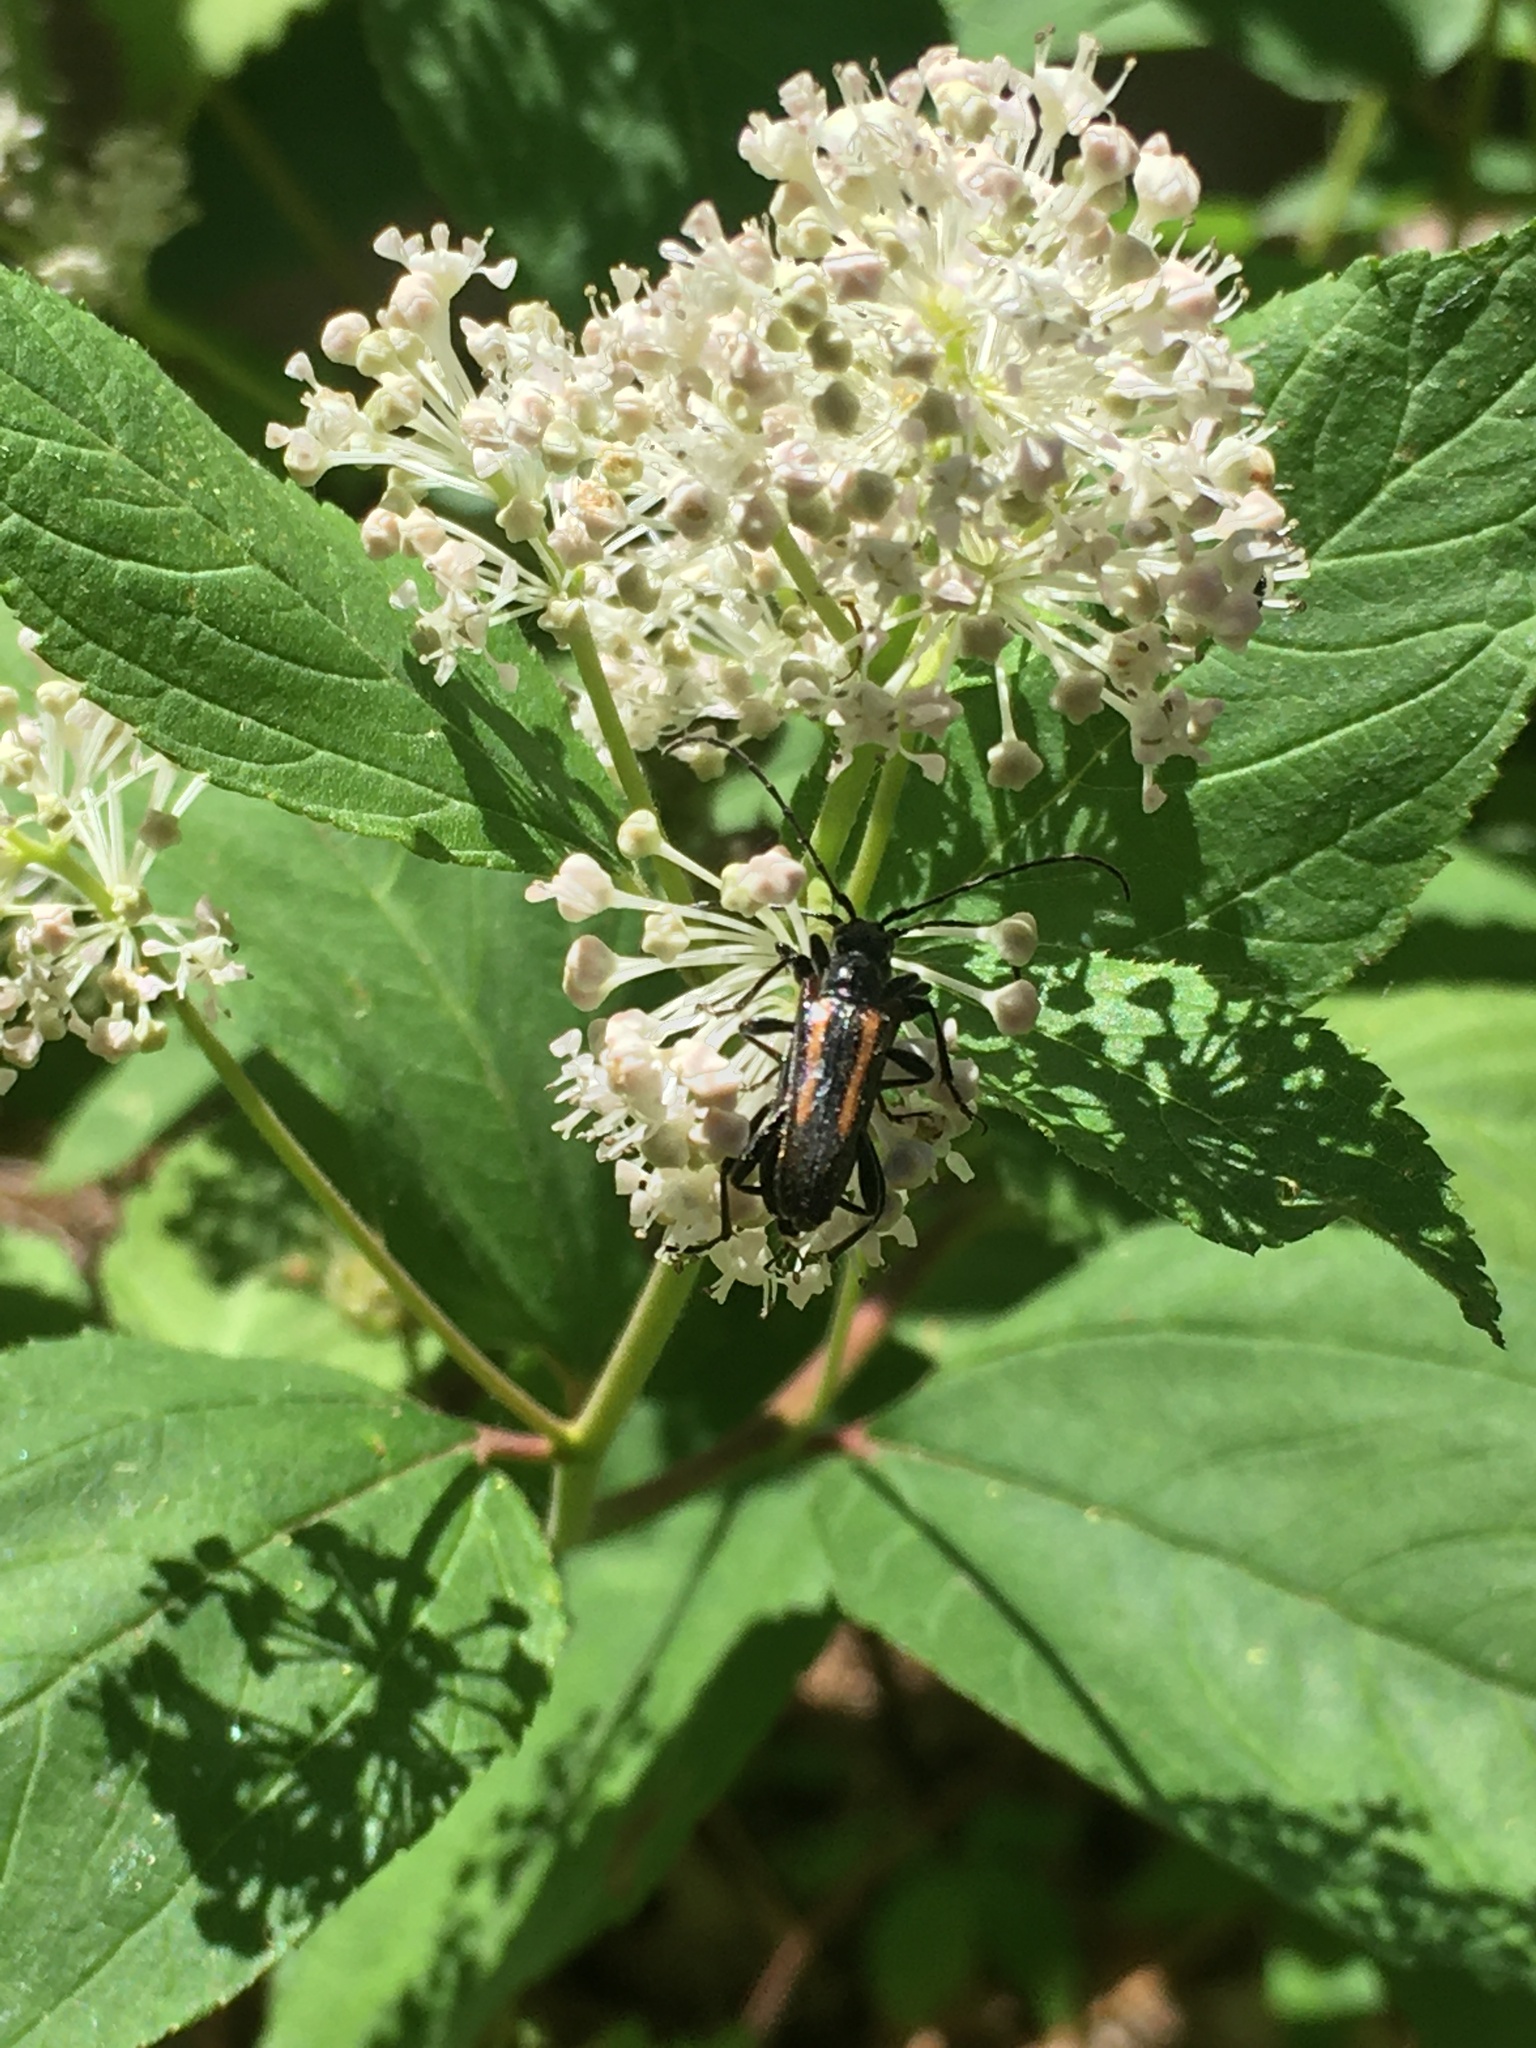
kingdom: Animalia
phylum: Arthropoda
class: Insecta
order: Coleoptera
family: Cerambycidae
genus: Strangalepta
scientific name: Strangalepta abbreviata
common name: Strangalepta flower longhorn beetle
